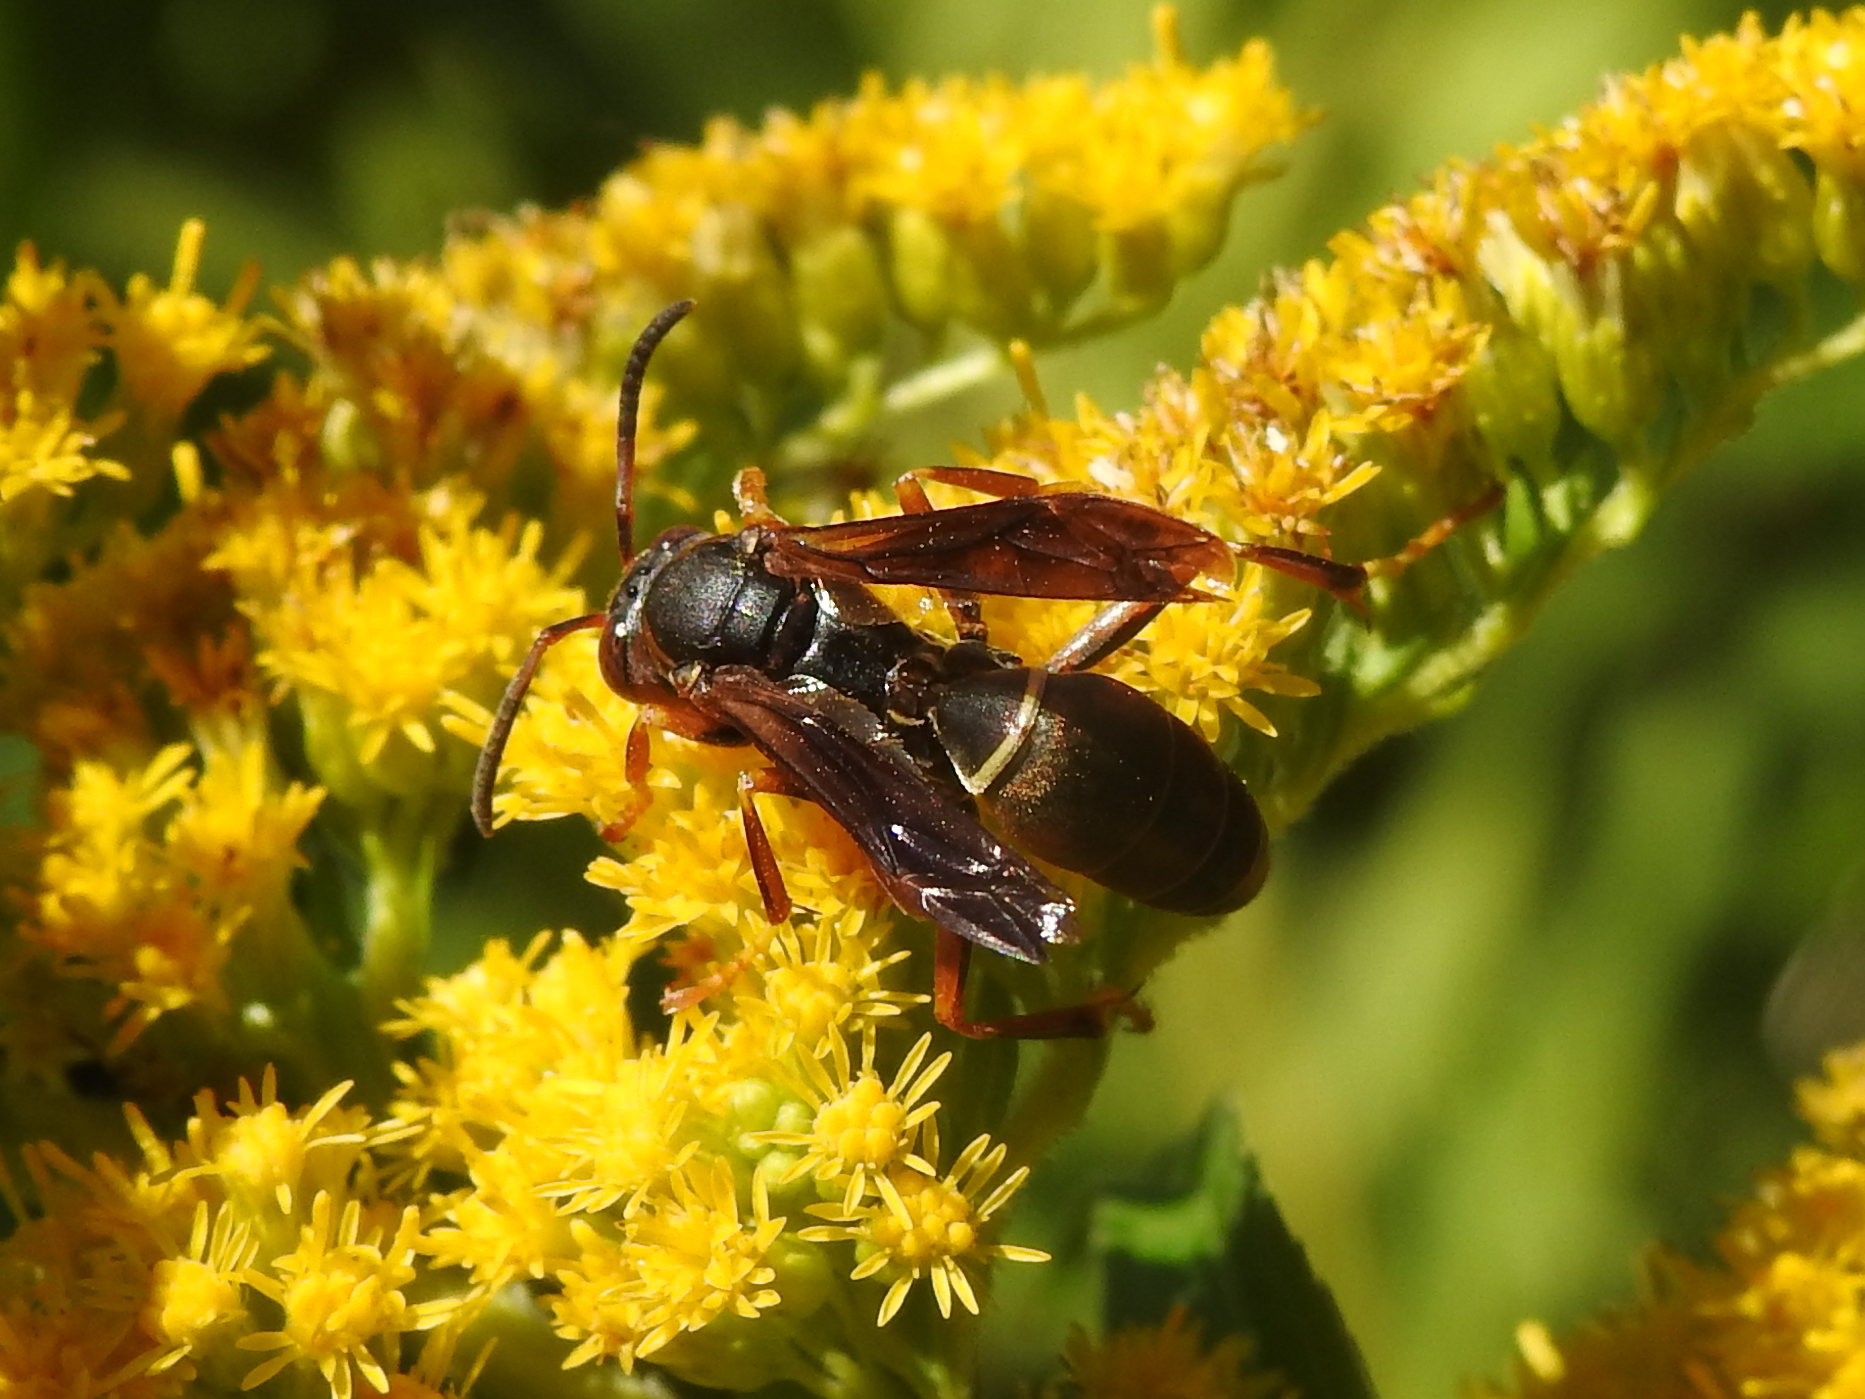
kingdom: Animalia
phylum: Arthropoda
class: Insecta
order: Hymenoptera
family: Eumenidae
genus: Polistes
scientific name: Polistes fuscatus
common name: Dark paper wasp
